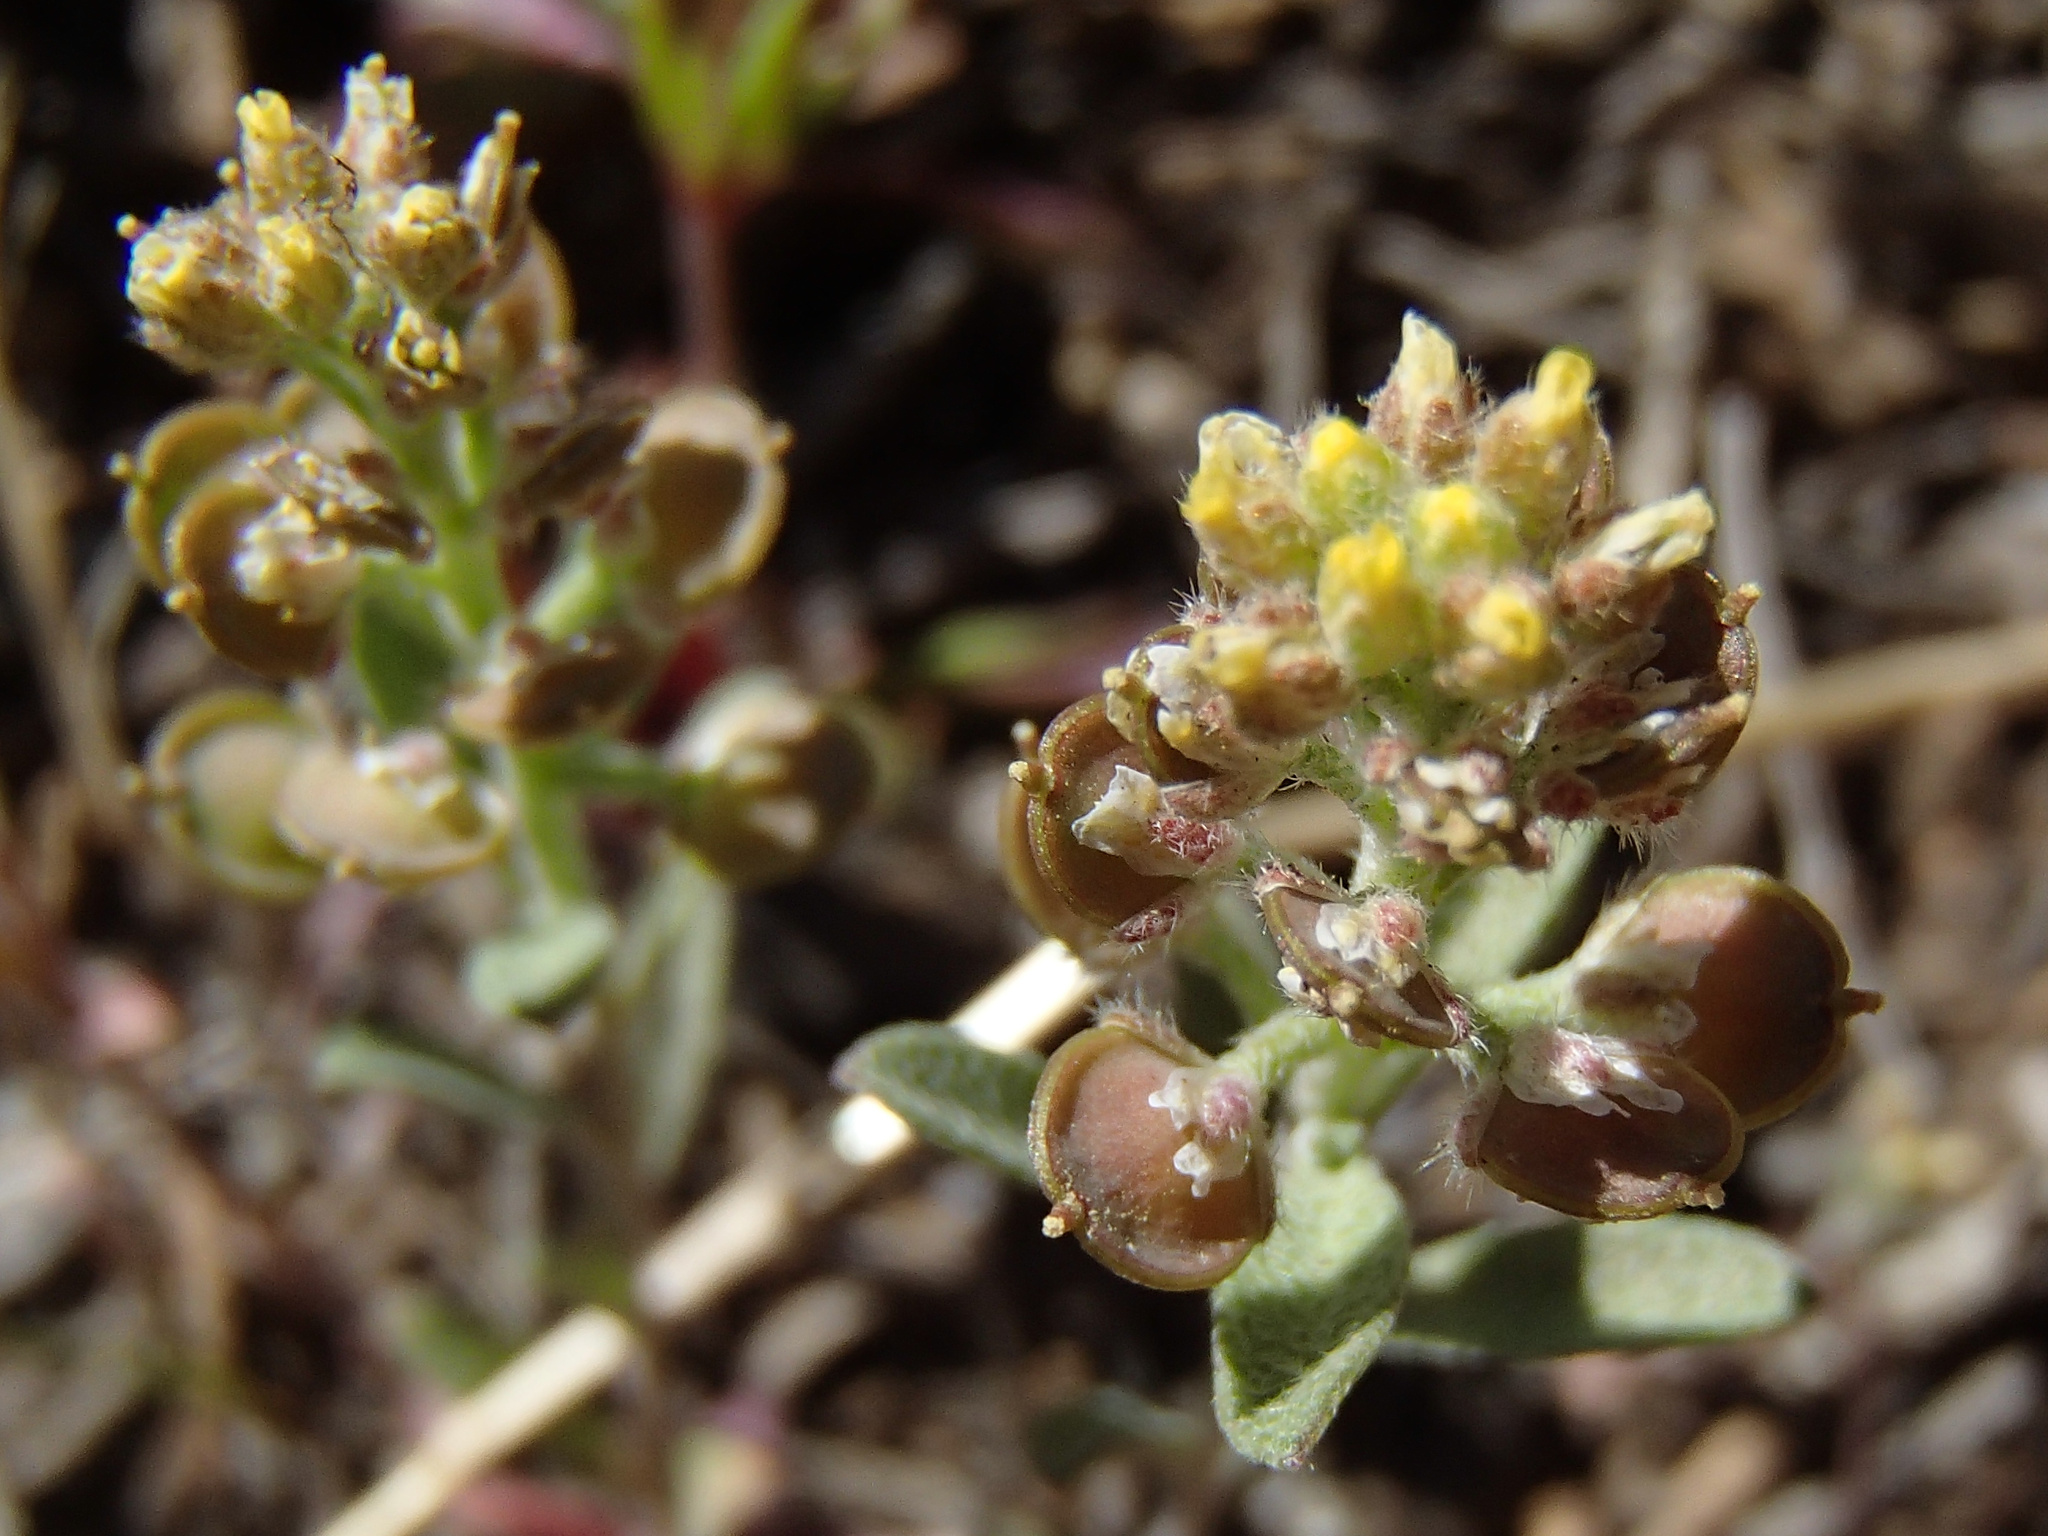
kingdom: Plantae
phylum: Tracheophyta
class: Magnoliopsida
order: Brassicales
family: Brassicaceae
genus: Alyssum
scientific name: Alyssum turkestanicum
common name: Desert alyssum
